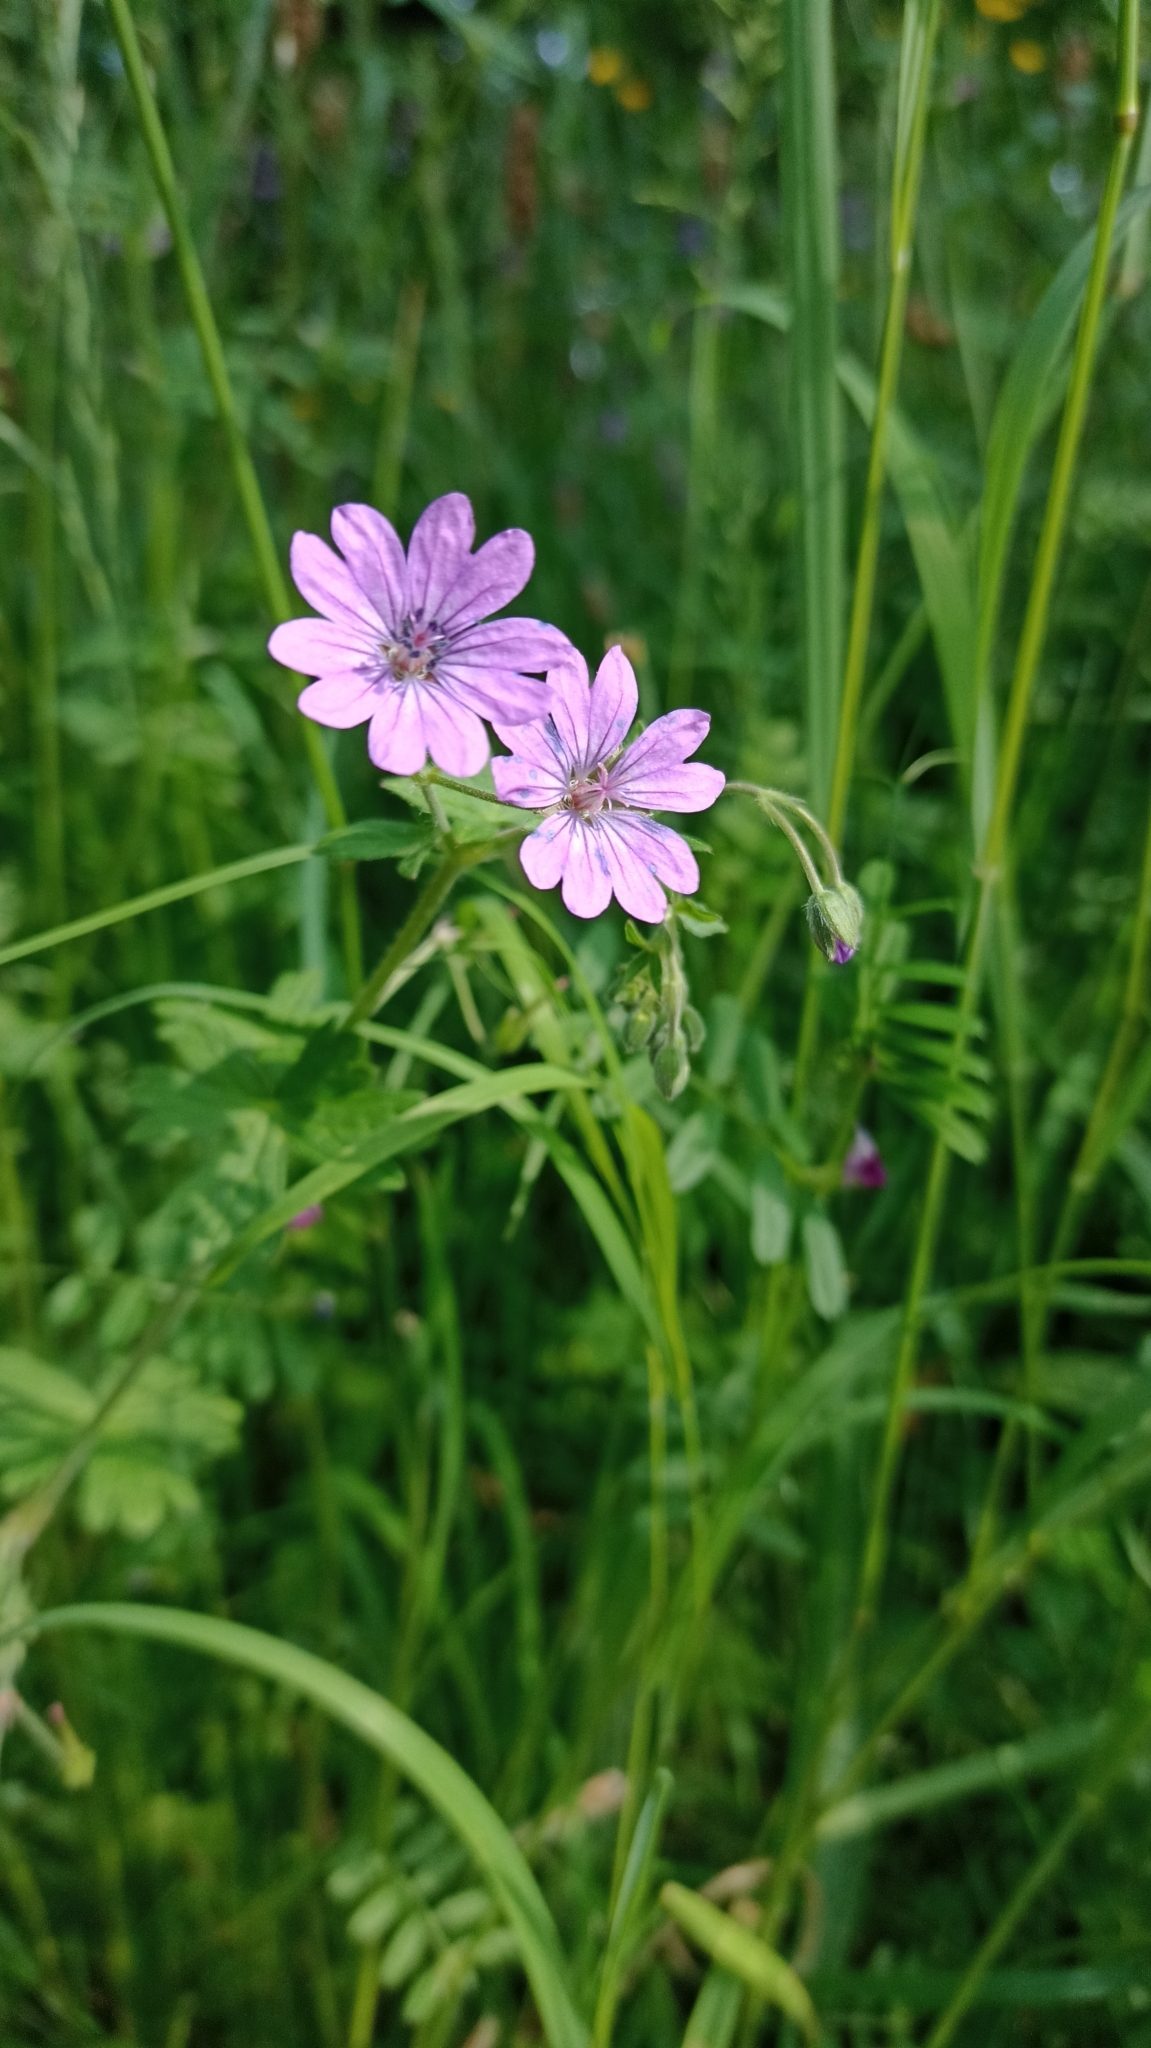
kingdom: Plantae
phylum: Tracheophyta
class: Magnoliopsida
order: Geraniales
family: Geraniaceae
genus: Geranium
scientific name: Geranium pyrenaicum
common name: Hedgerow crane's-bill
